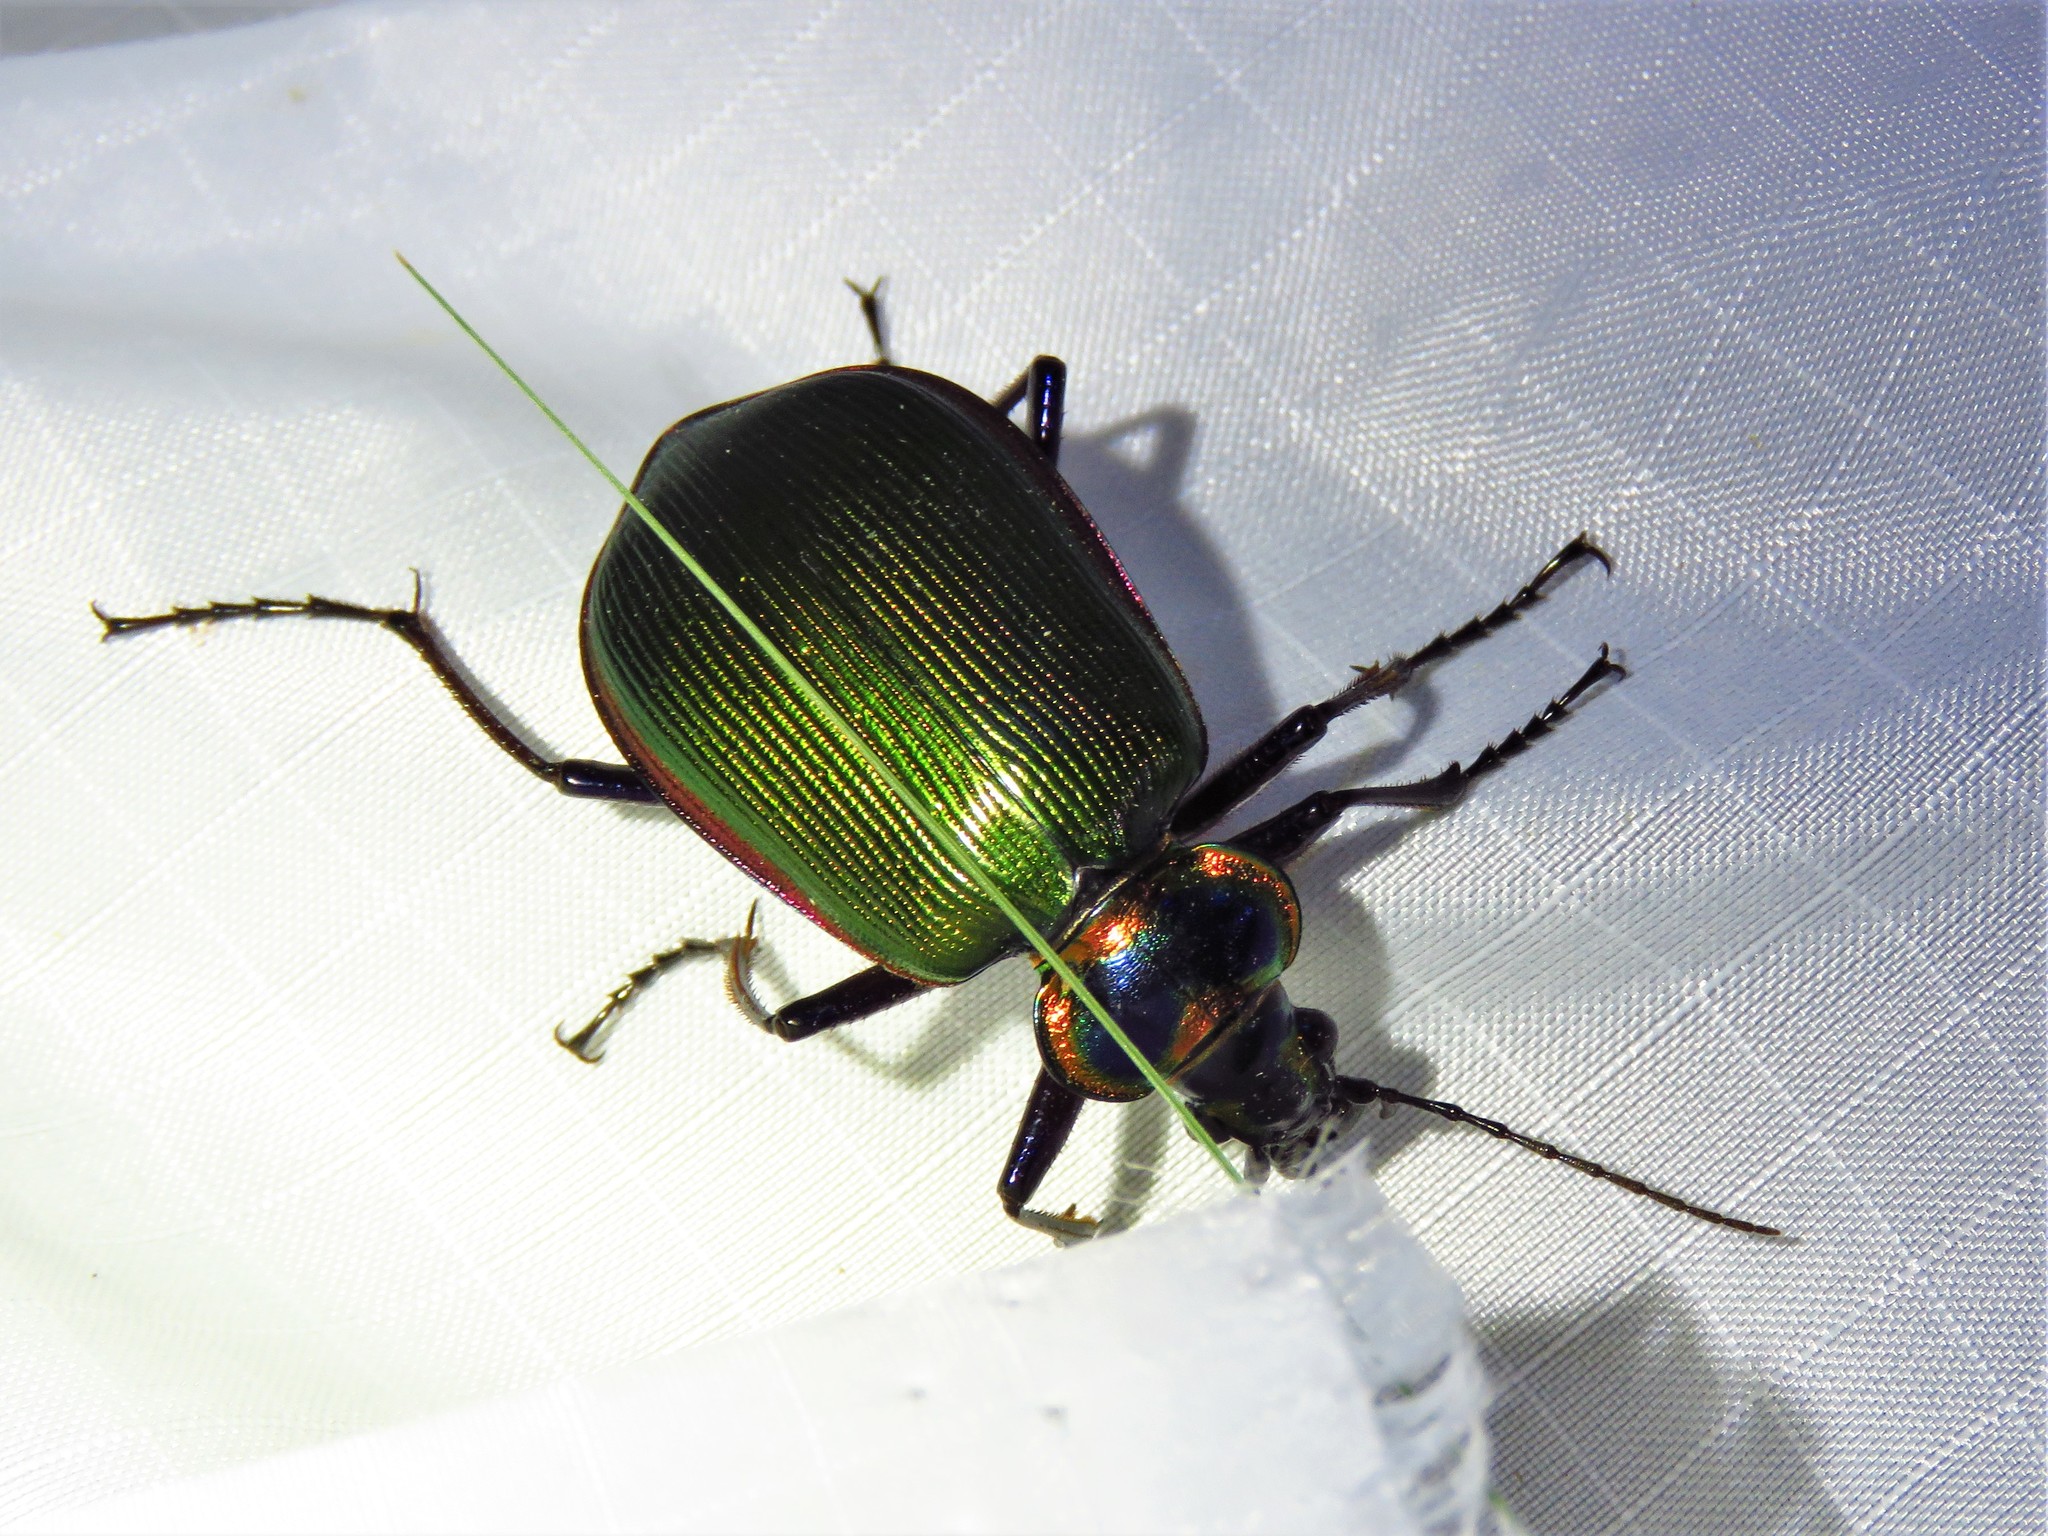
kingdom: Animalia
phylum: Arthropoda
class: Insecta
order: Coleoptera
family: Carabidae
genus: Calosoma
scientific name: Calosoma scrutator
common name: Fiery searcher beetle
